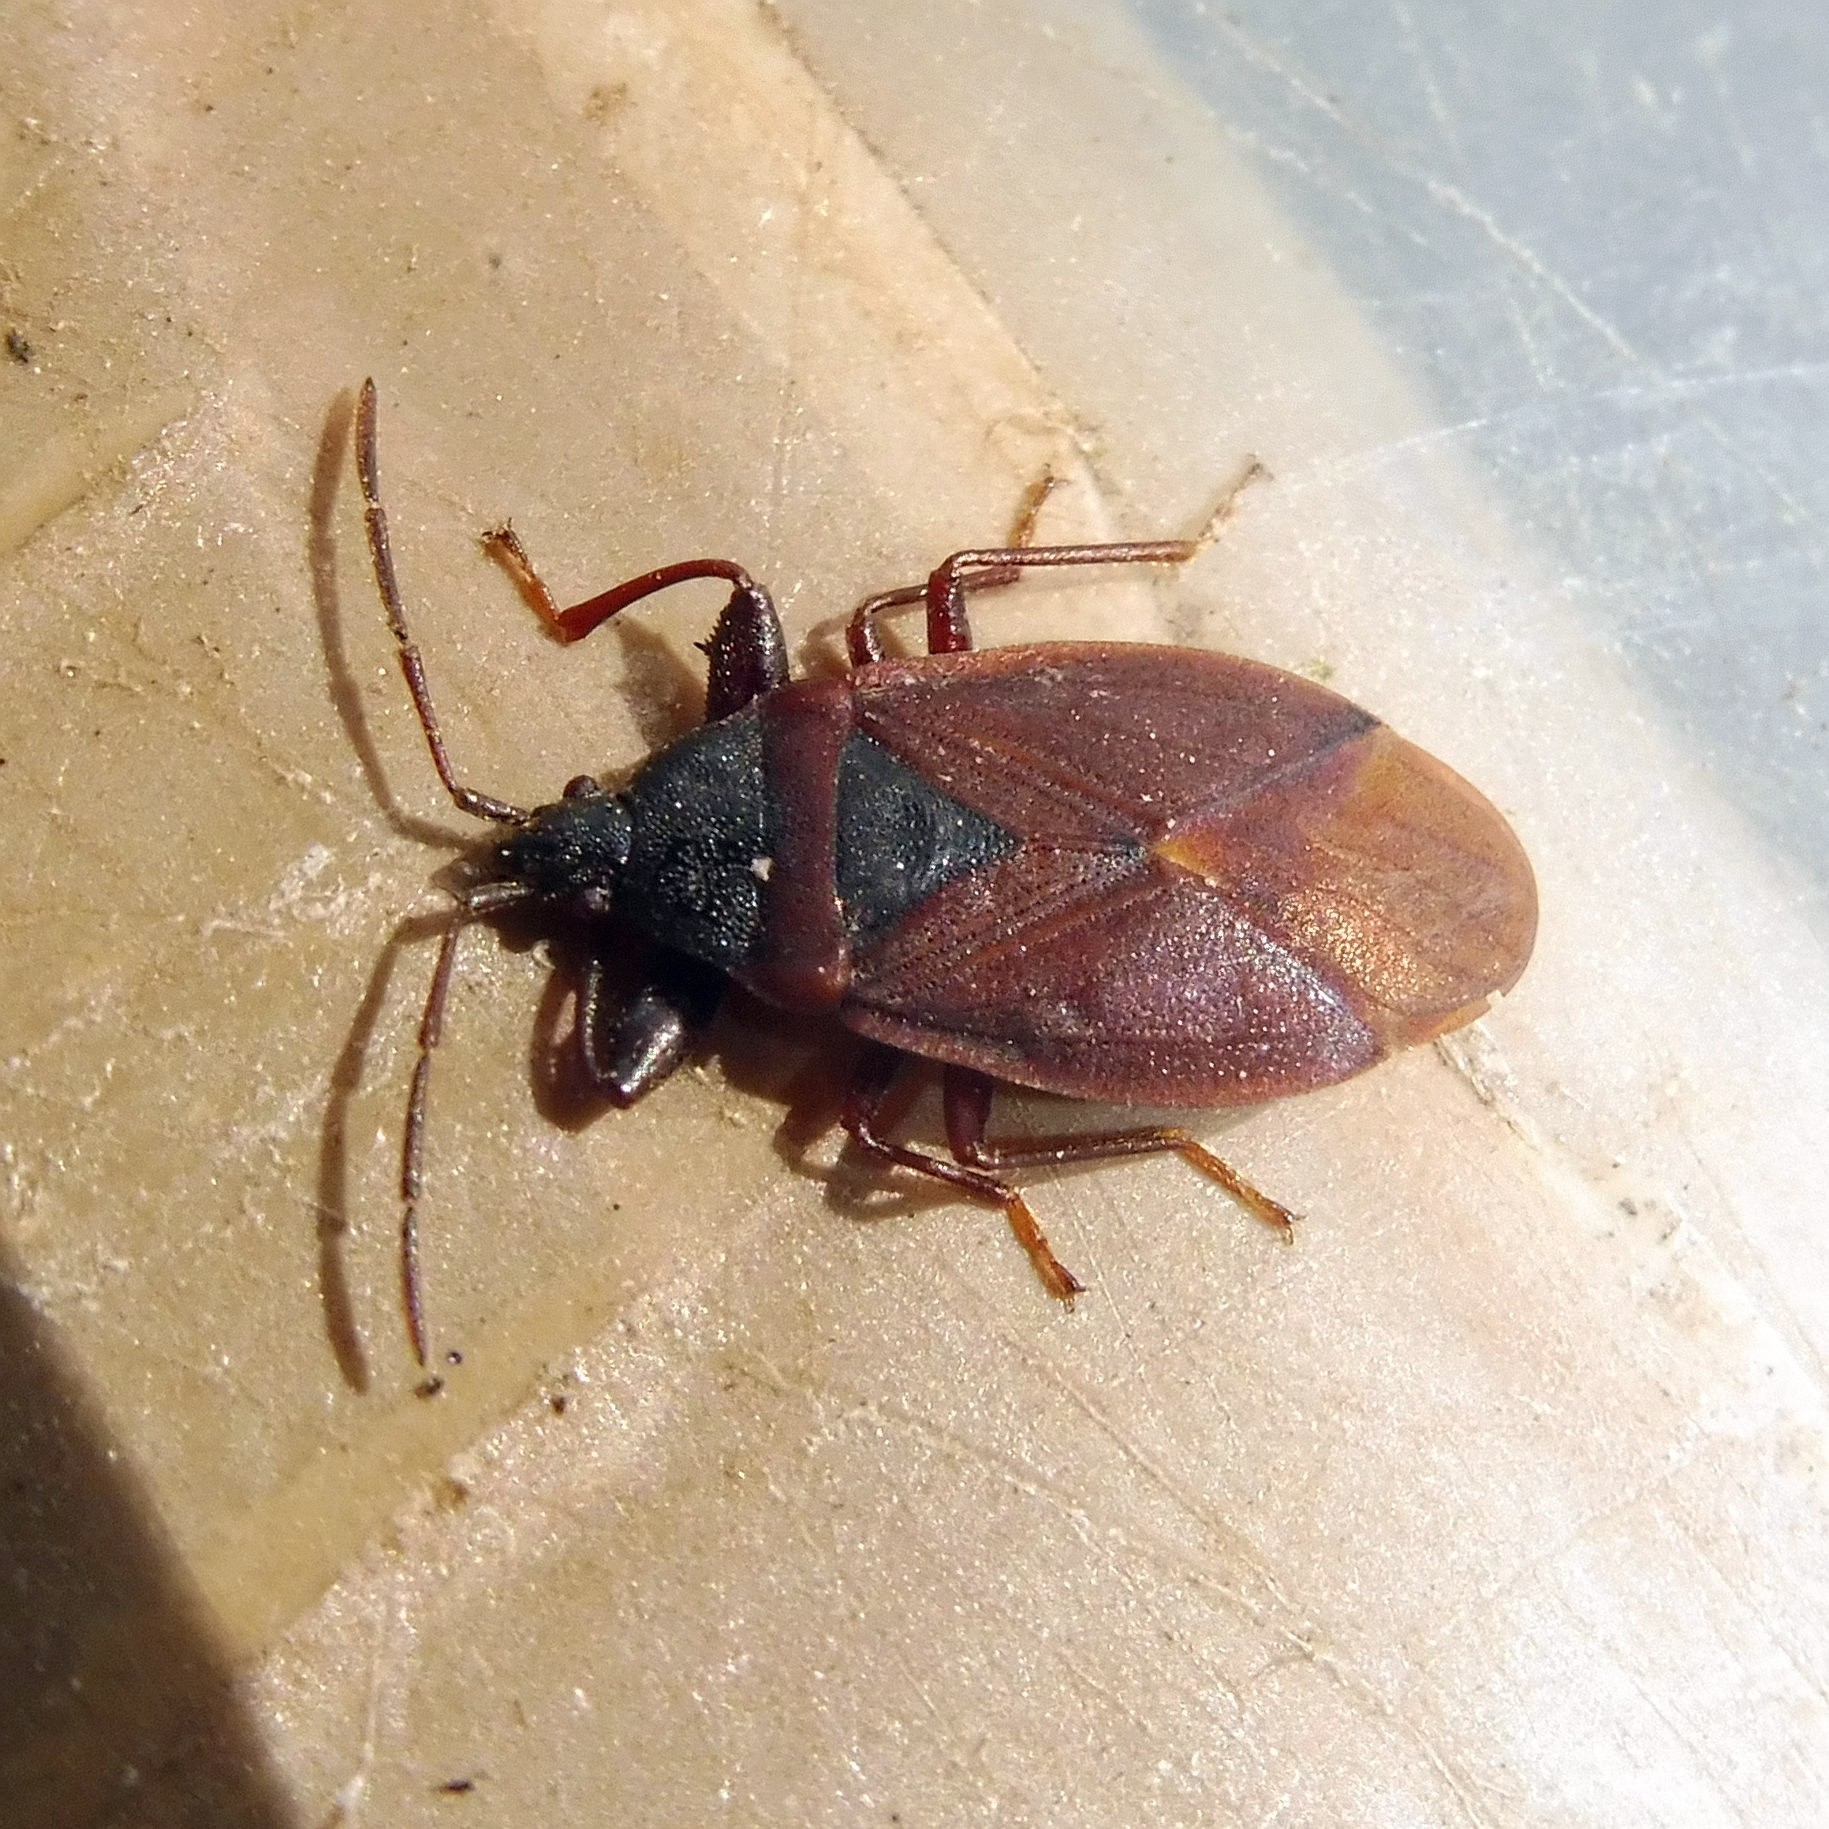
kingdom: Animalia
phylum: Arthropoda
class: Insecta
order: Hemiptera
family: Rhyparochromidae
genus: Gastrodes
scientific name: Gastrodes grossipes
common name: Pine cone bug
